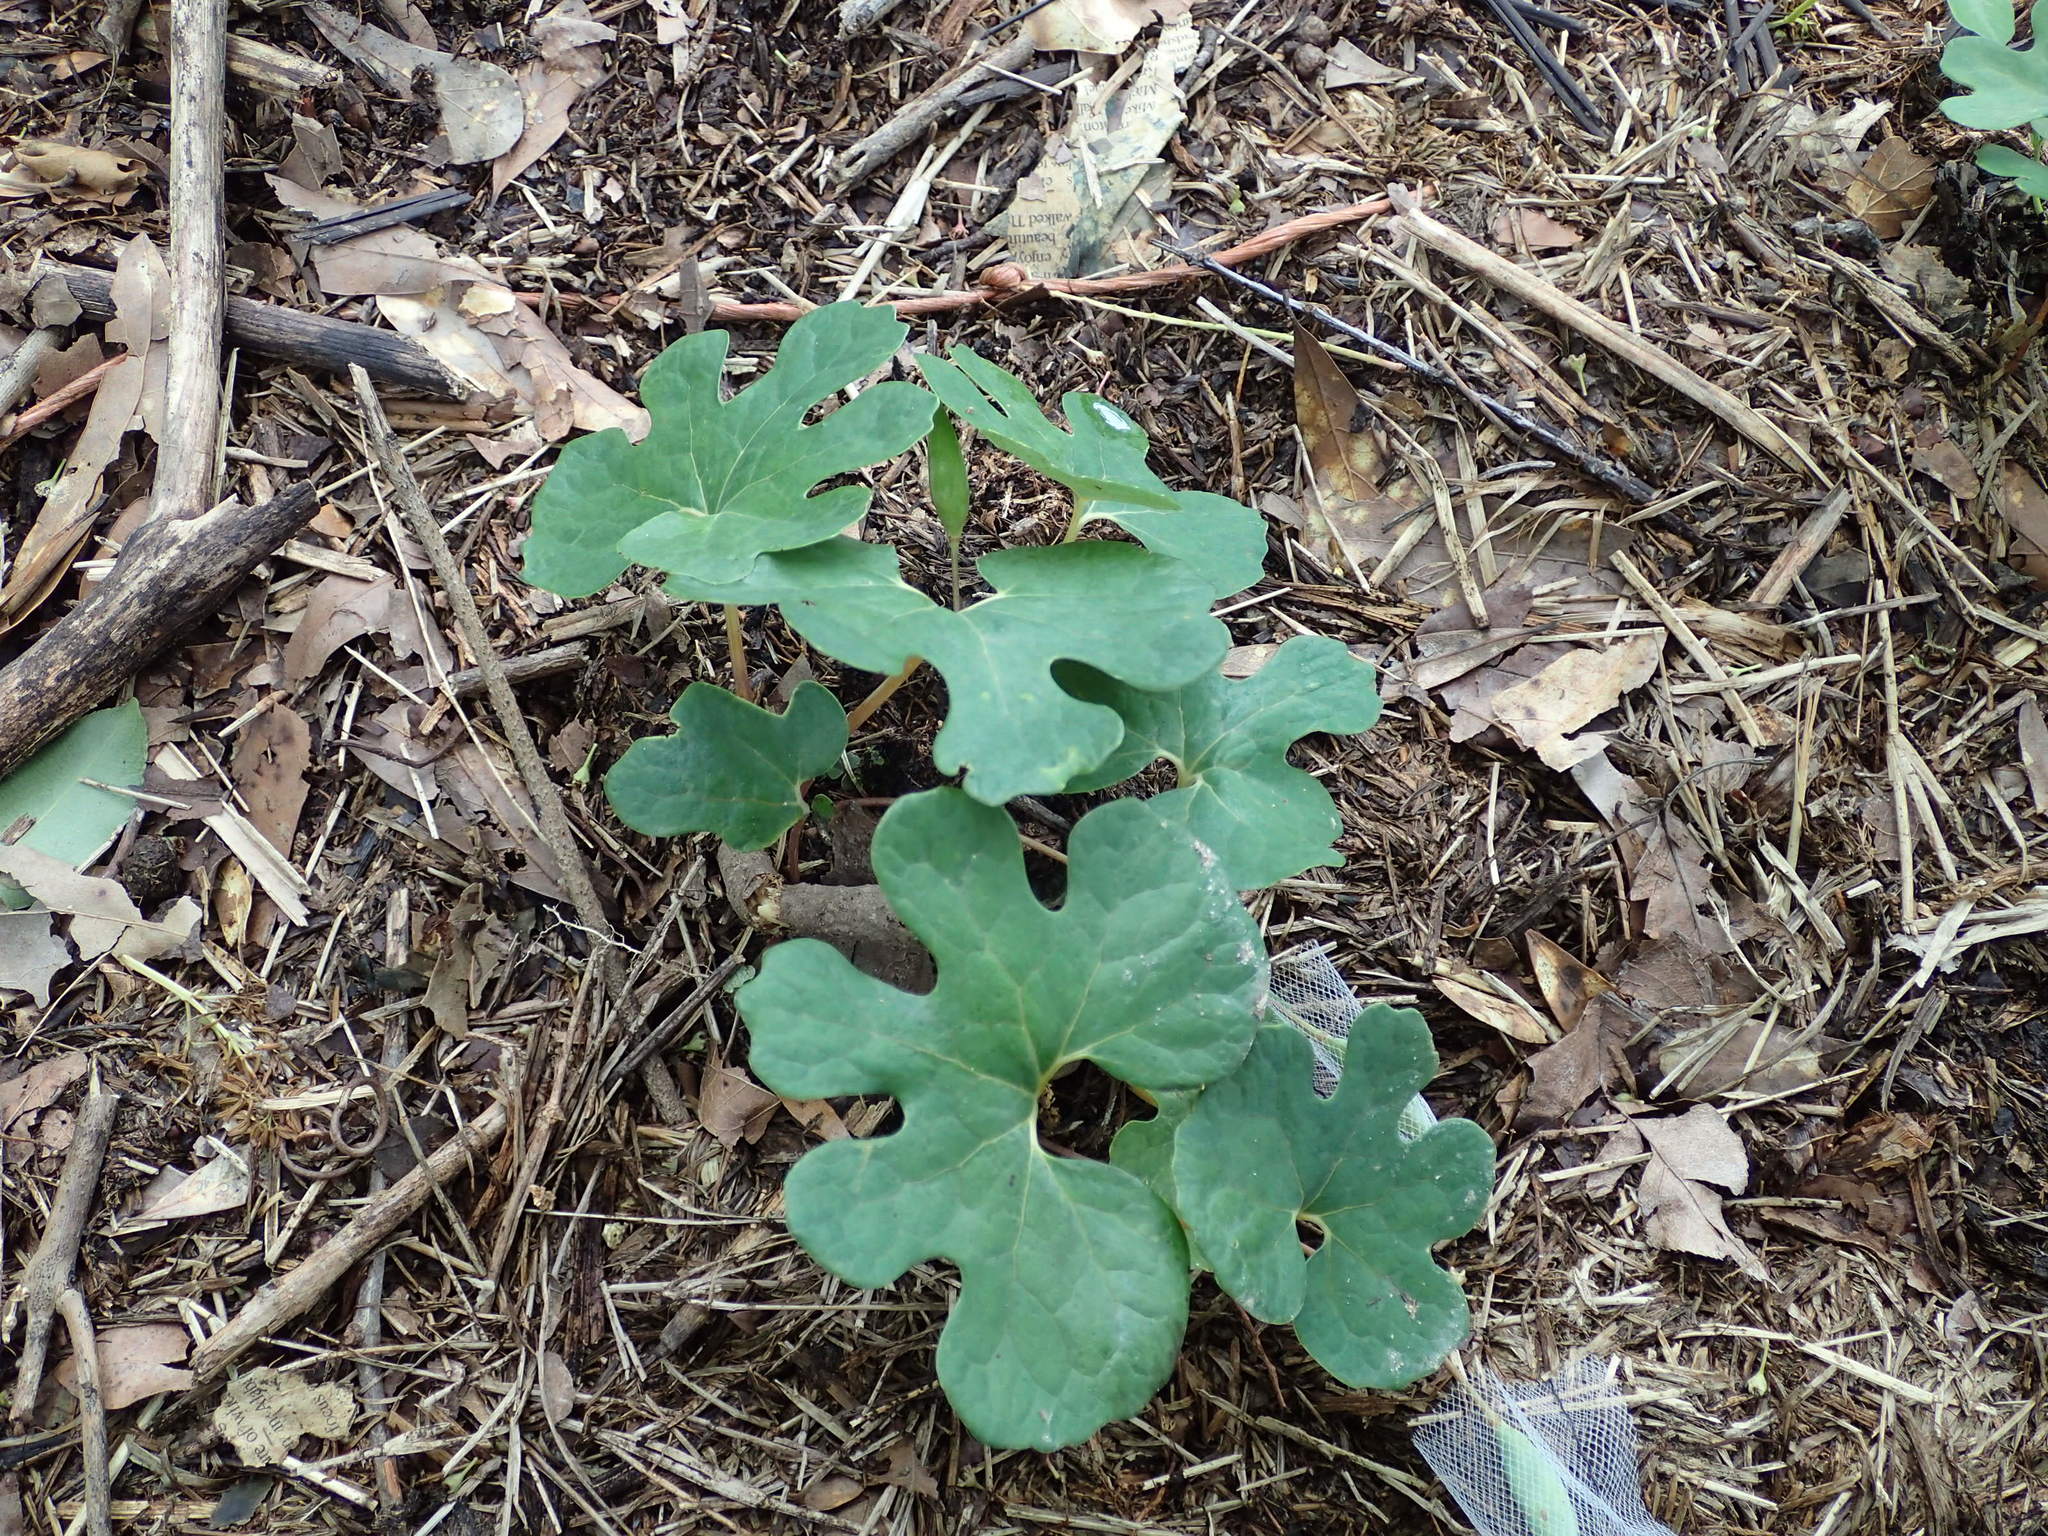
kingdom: Plantae
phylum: Tracheophyta
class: Magnoliopsida
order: Ranunculales
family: Papaveraceae
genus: Sanguinaria
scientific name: Sanguinaria canadensis
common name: Bloodroot
